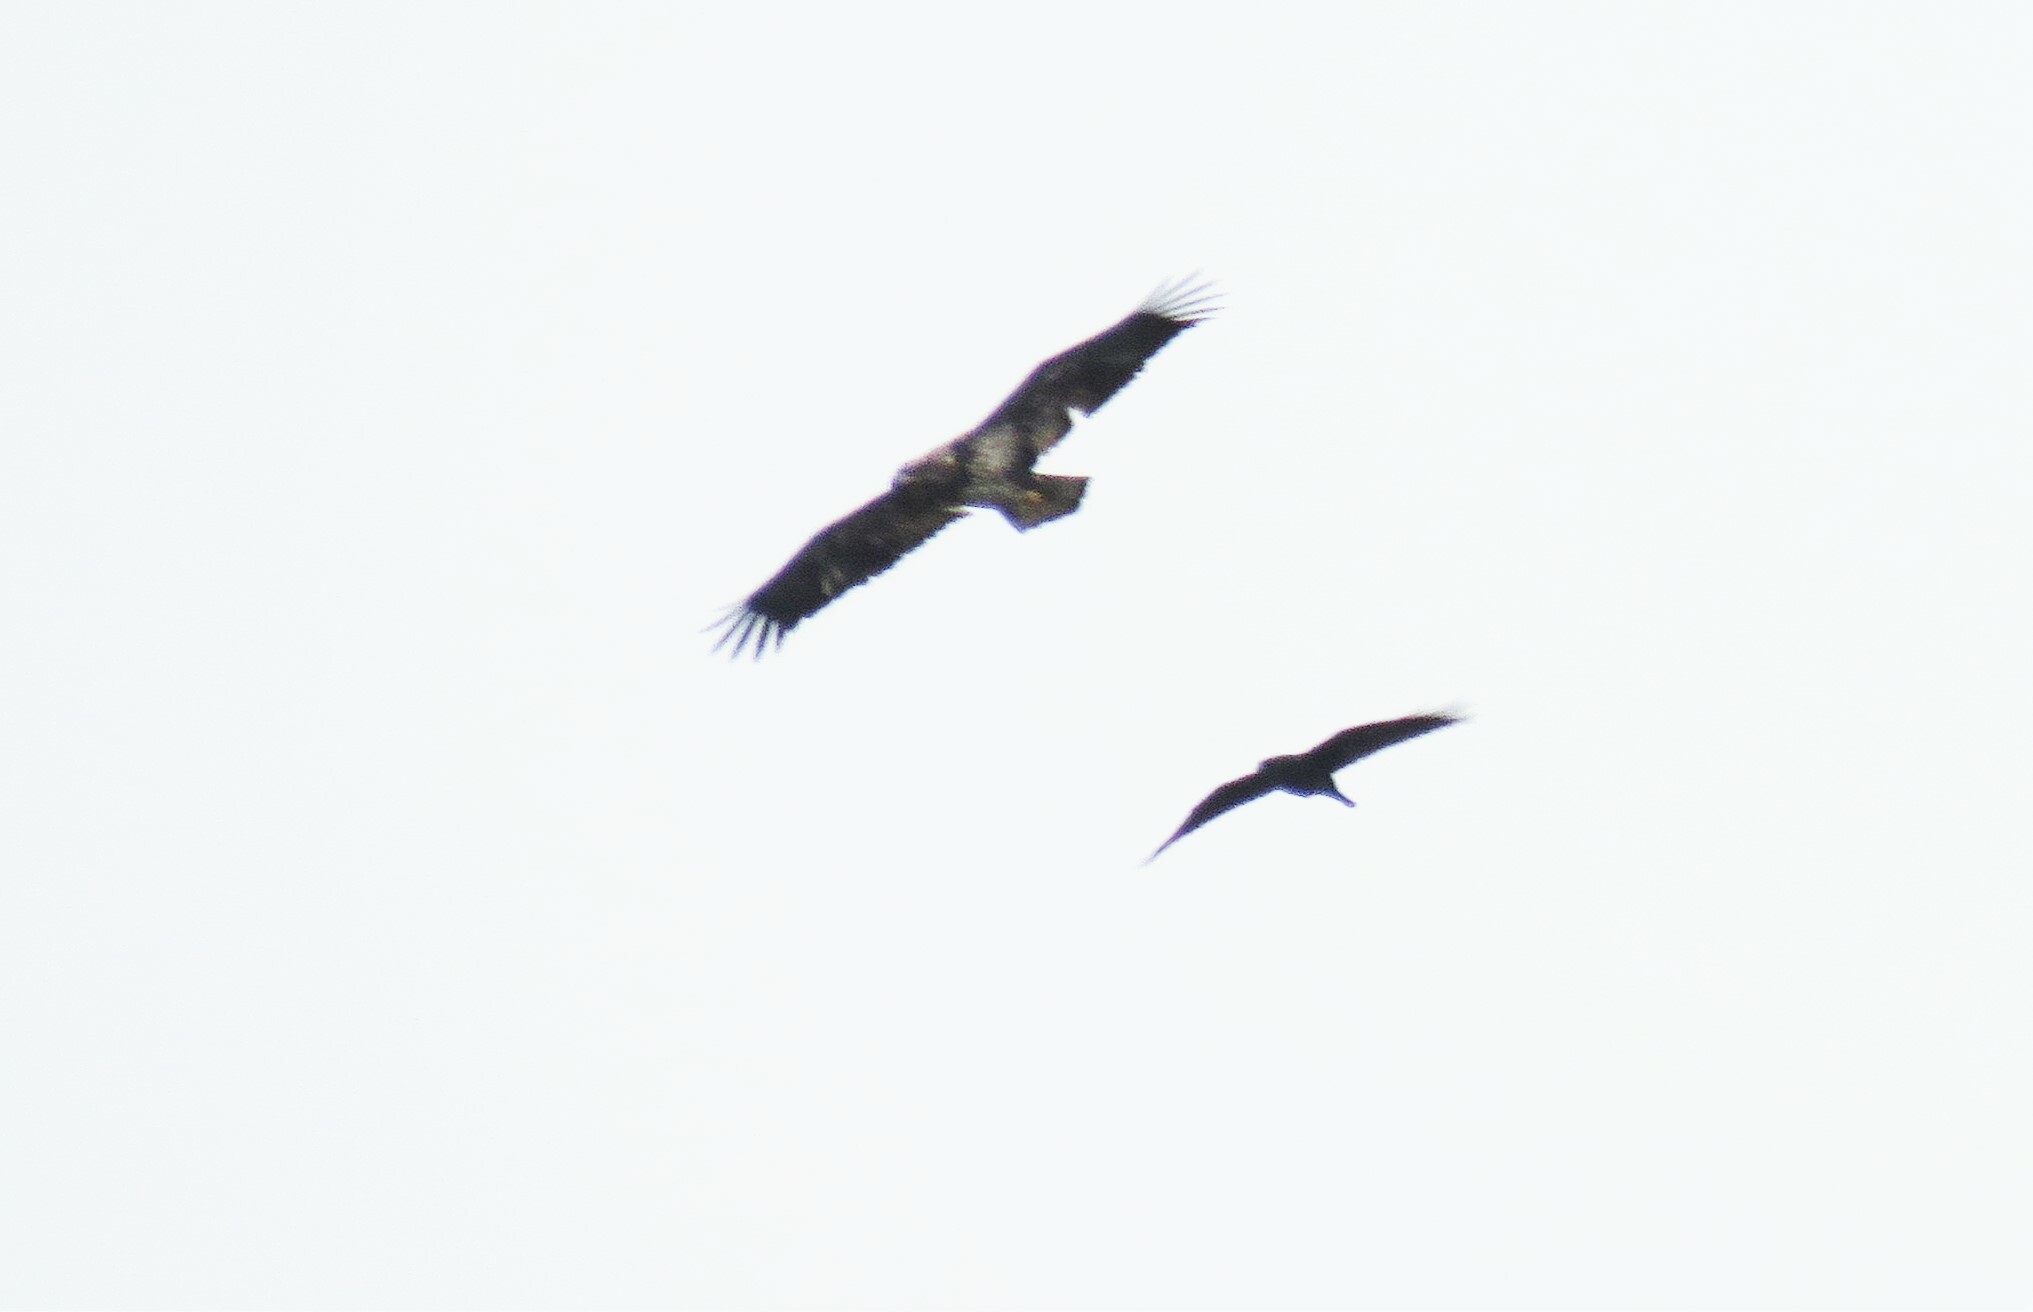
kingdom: Animalia
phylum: Chordata
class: Aves
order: Accipitriformes
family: Accipitridae
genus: Haliaeetus
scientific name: Haliaeetus leucocephalus
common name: Bald eagle
